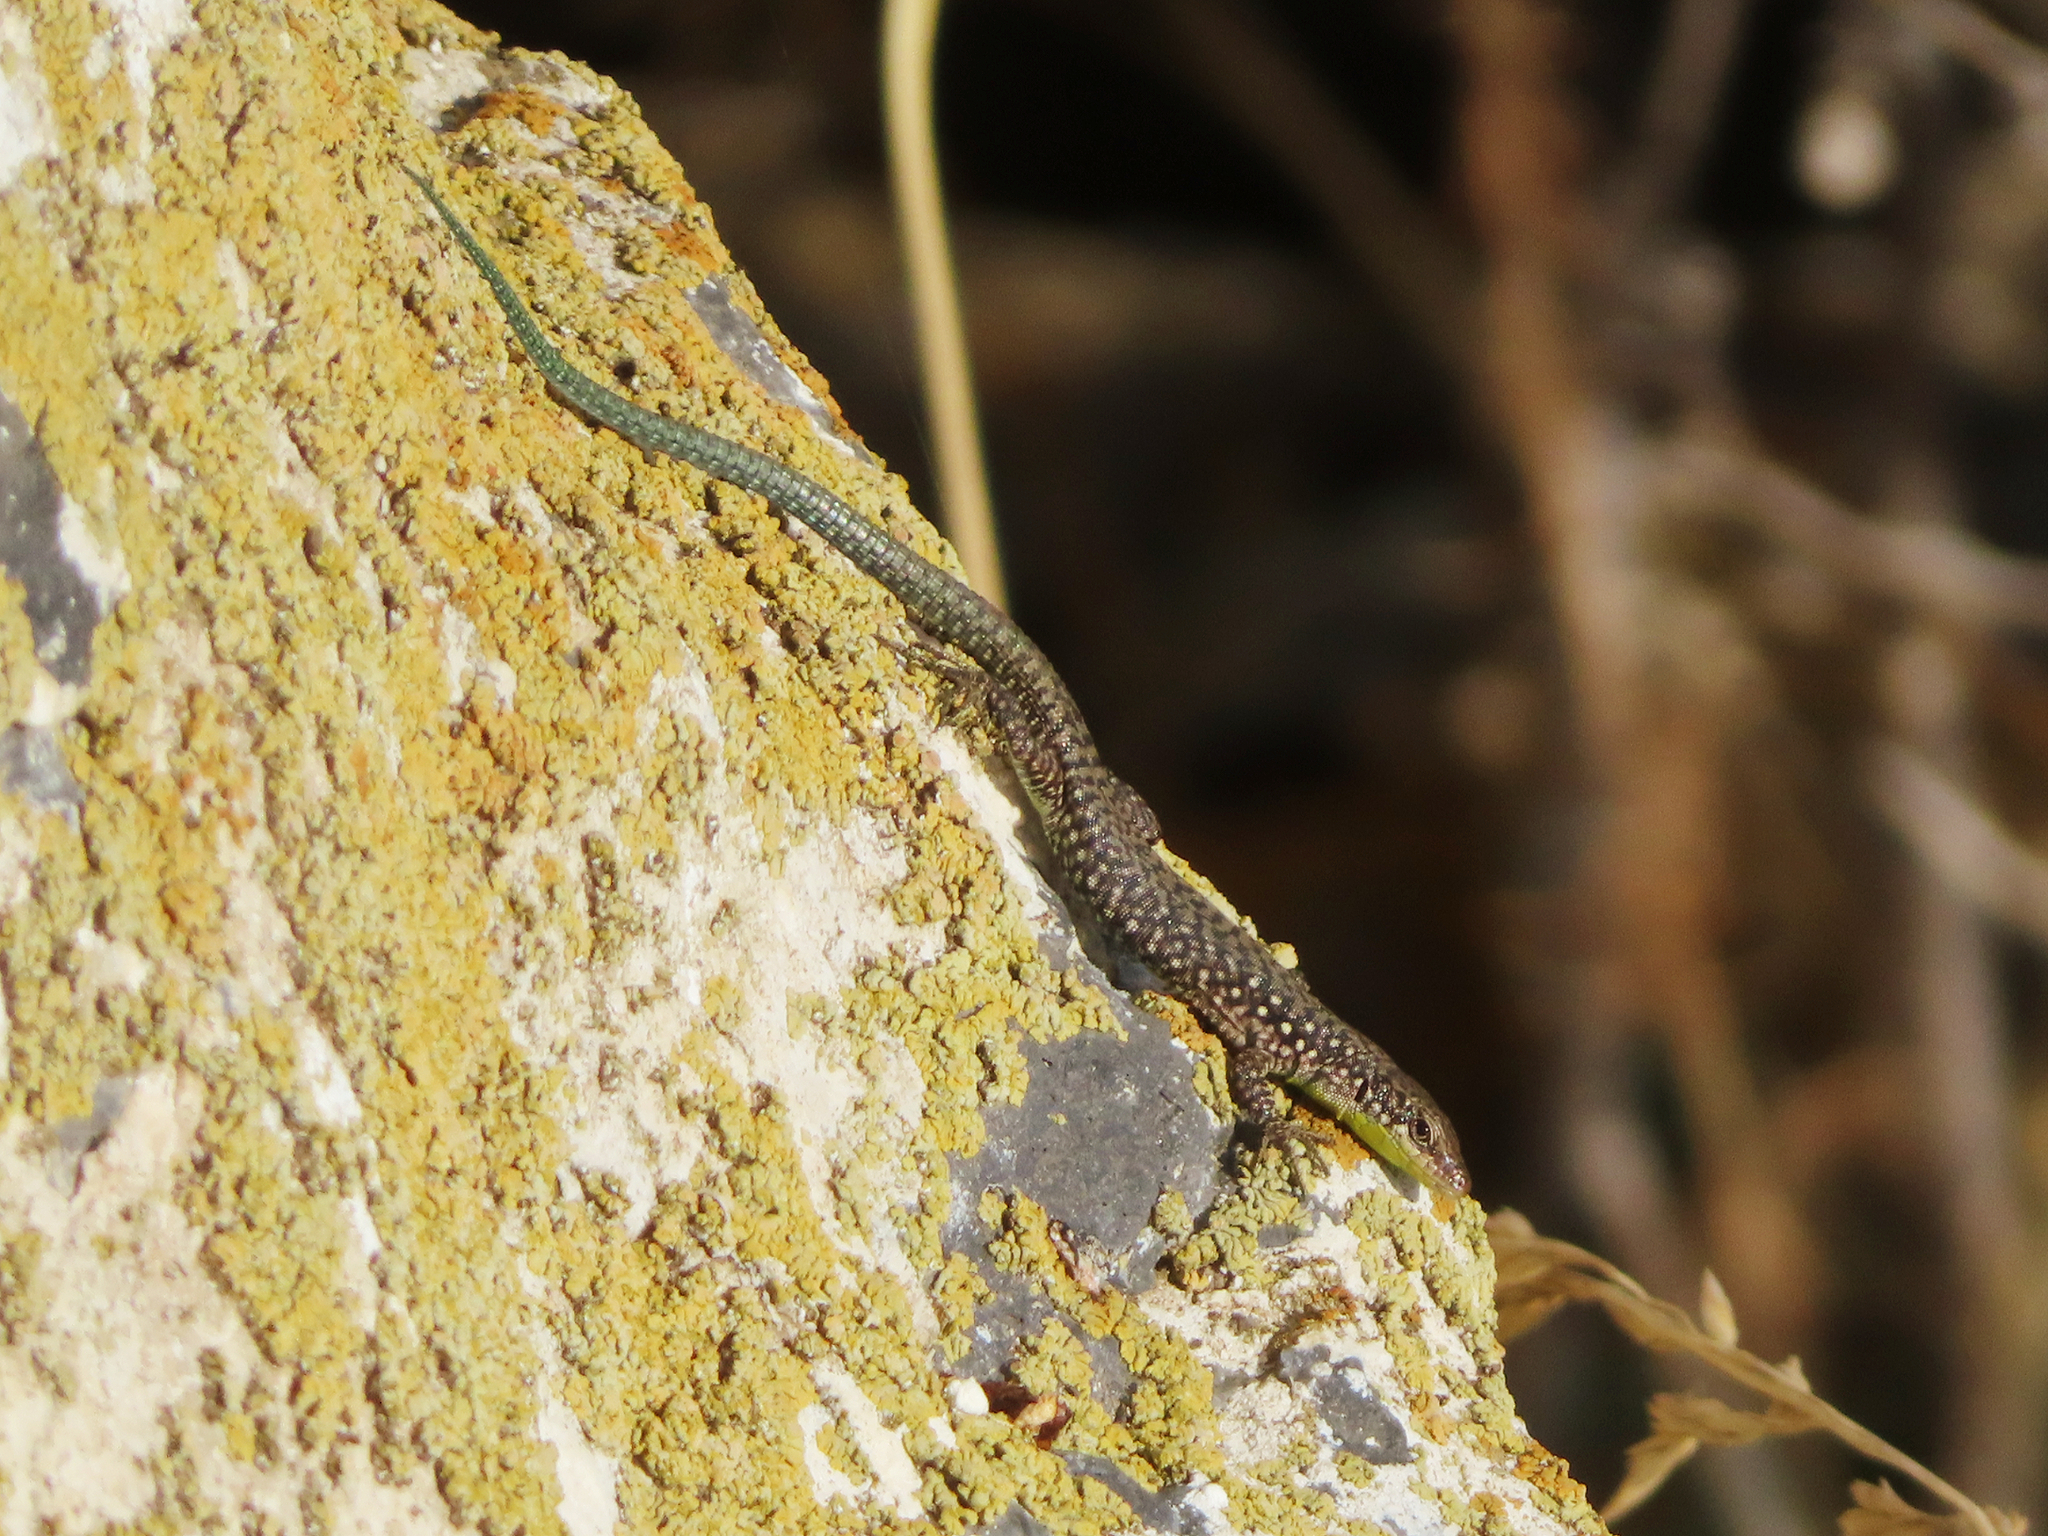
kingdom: Animalia
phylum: Chordata
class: Squamata
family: Lacertidae
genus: Darevskia
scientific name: Darevskia
